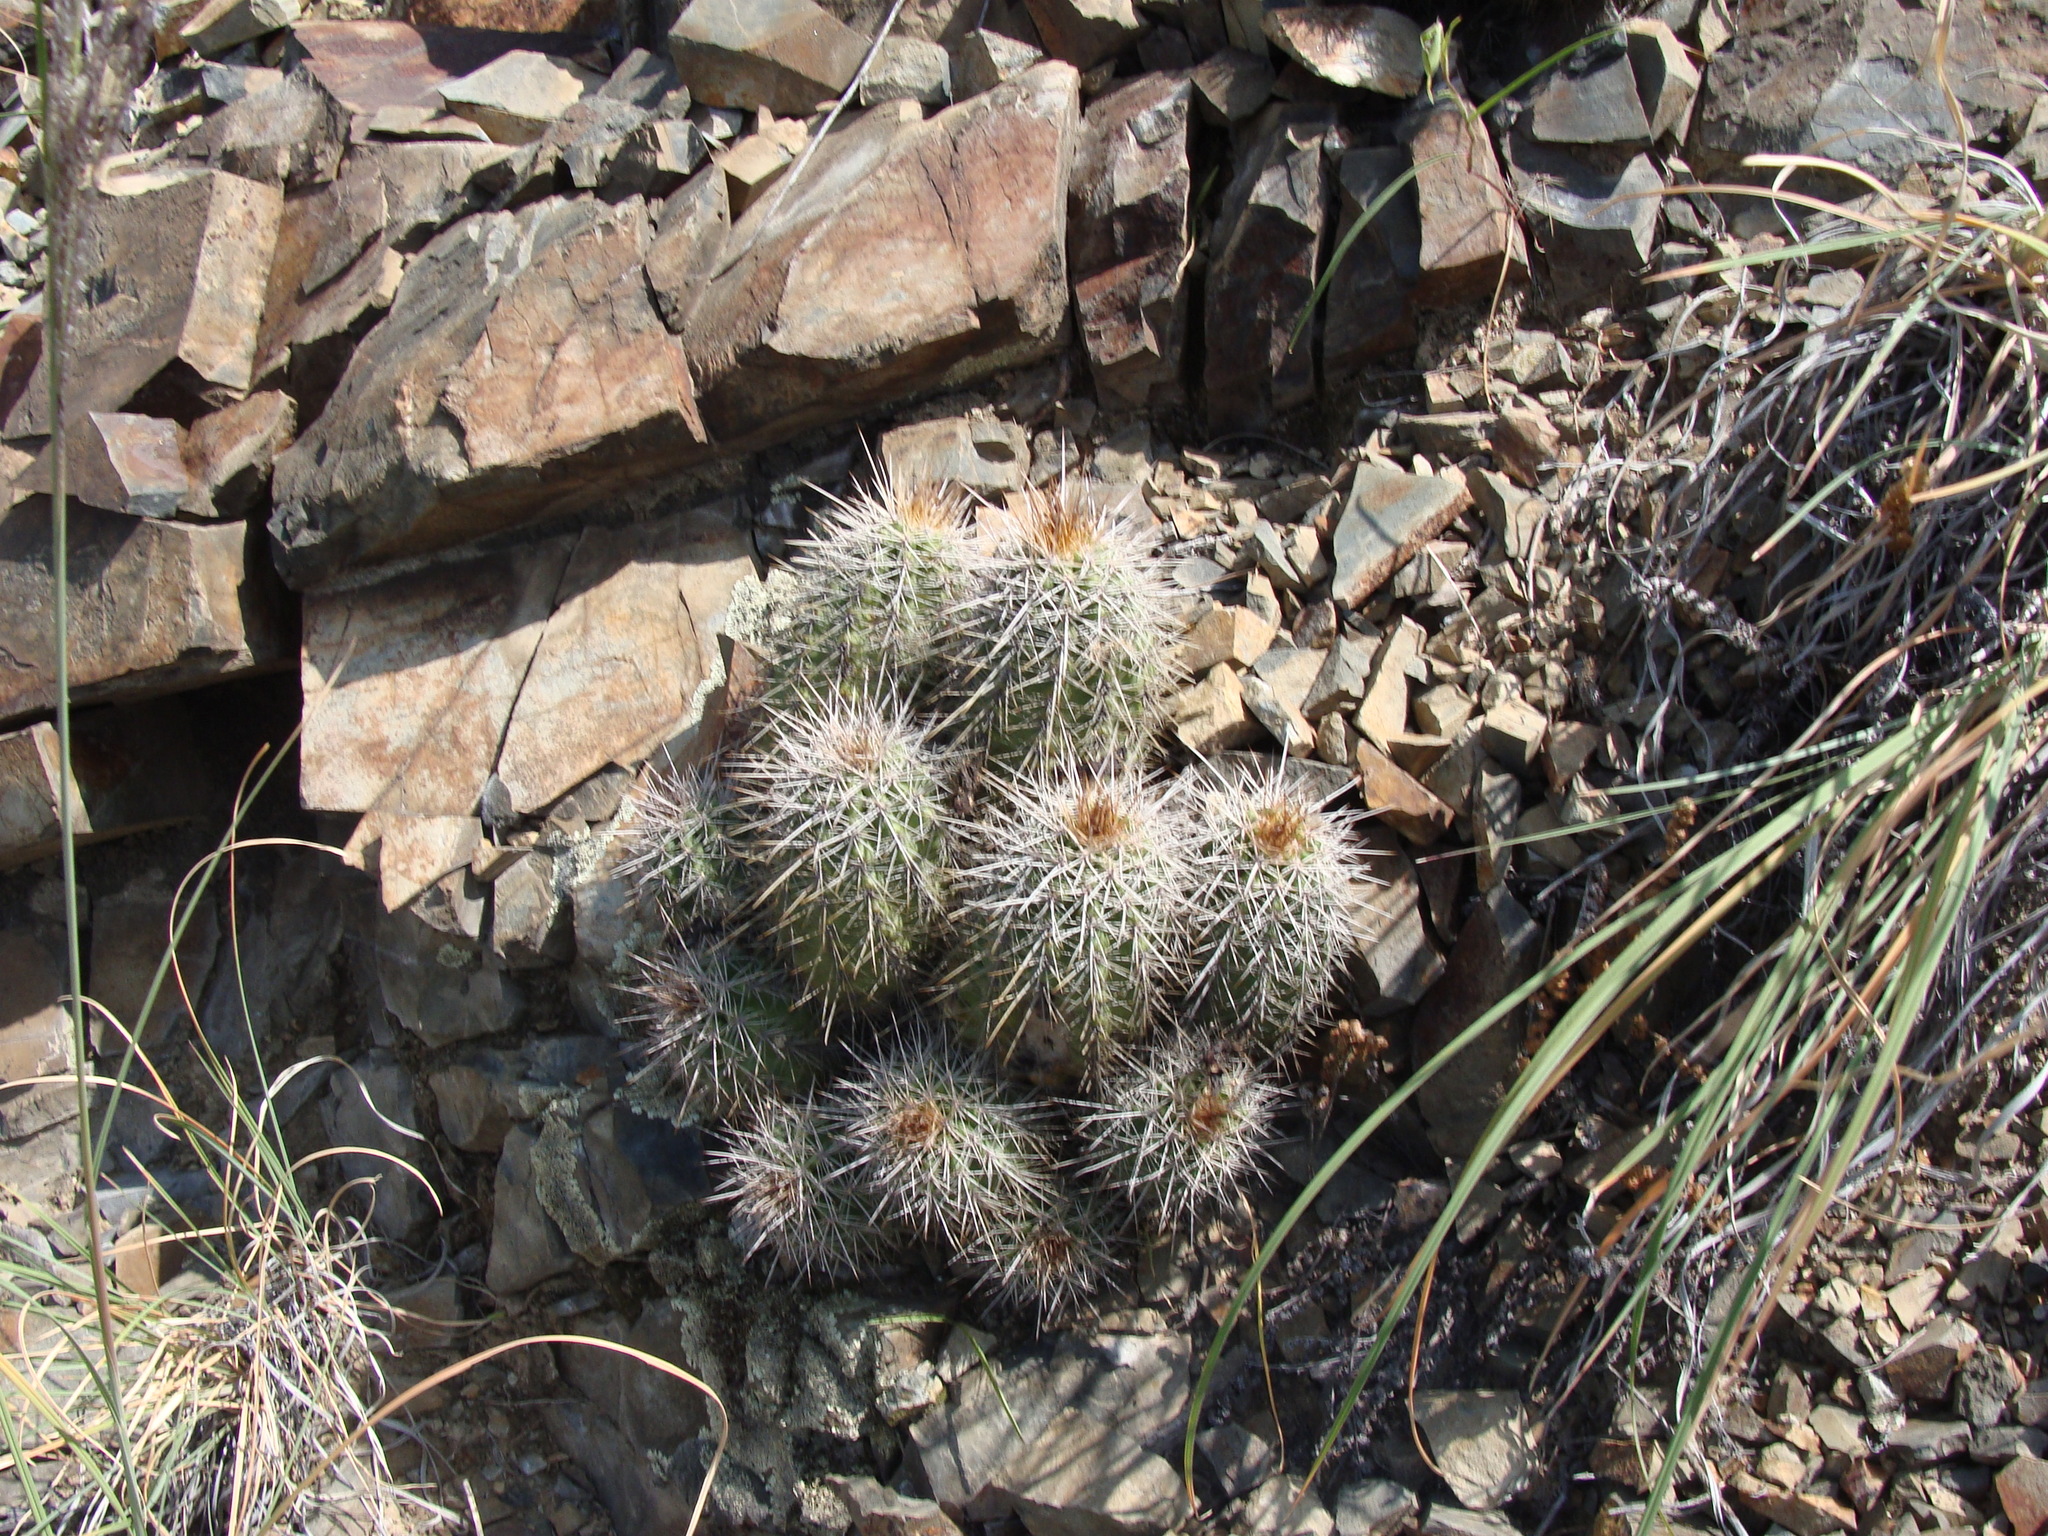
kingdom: Plantae
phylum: Tracheophyta
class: Magnoliopsida
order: Caryophyllales
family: Cactaceae
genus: Echinocereus
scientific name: Echinocereus coccineus
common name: Scarlet hedgehog cactus
